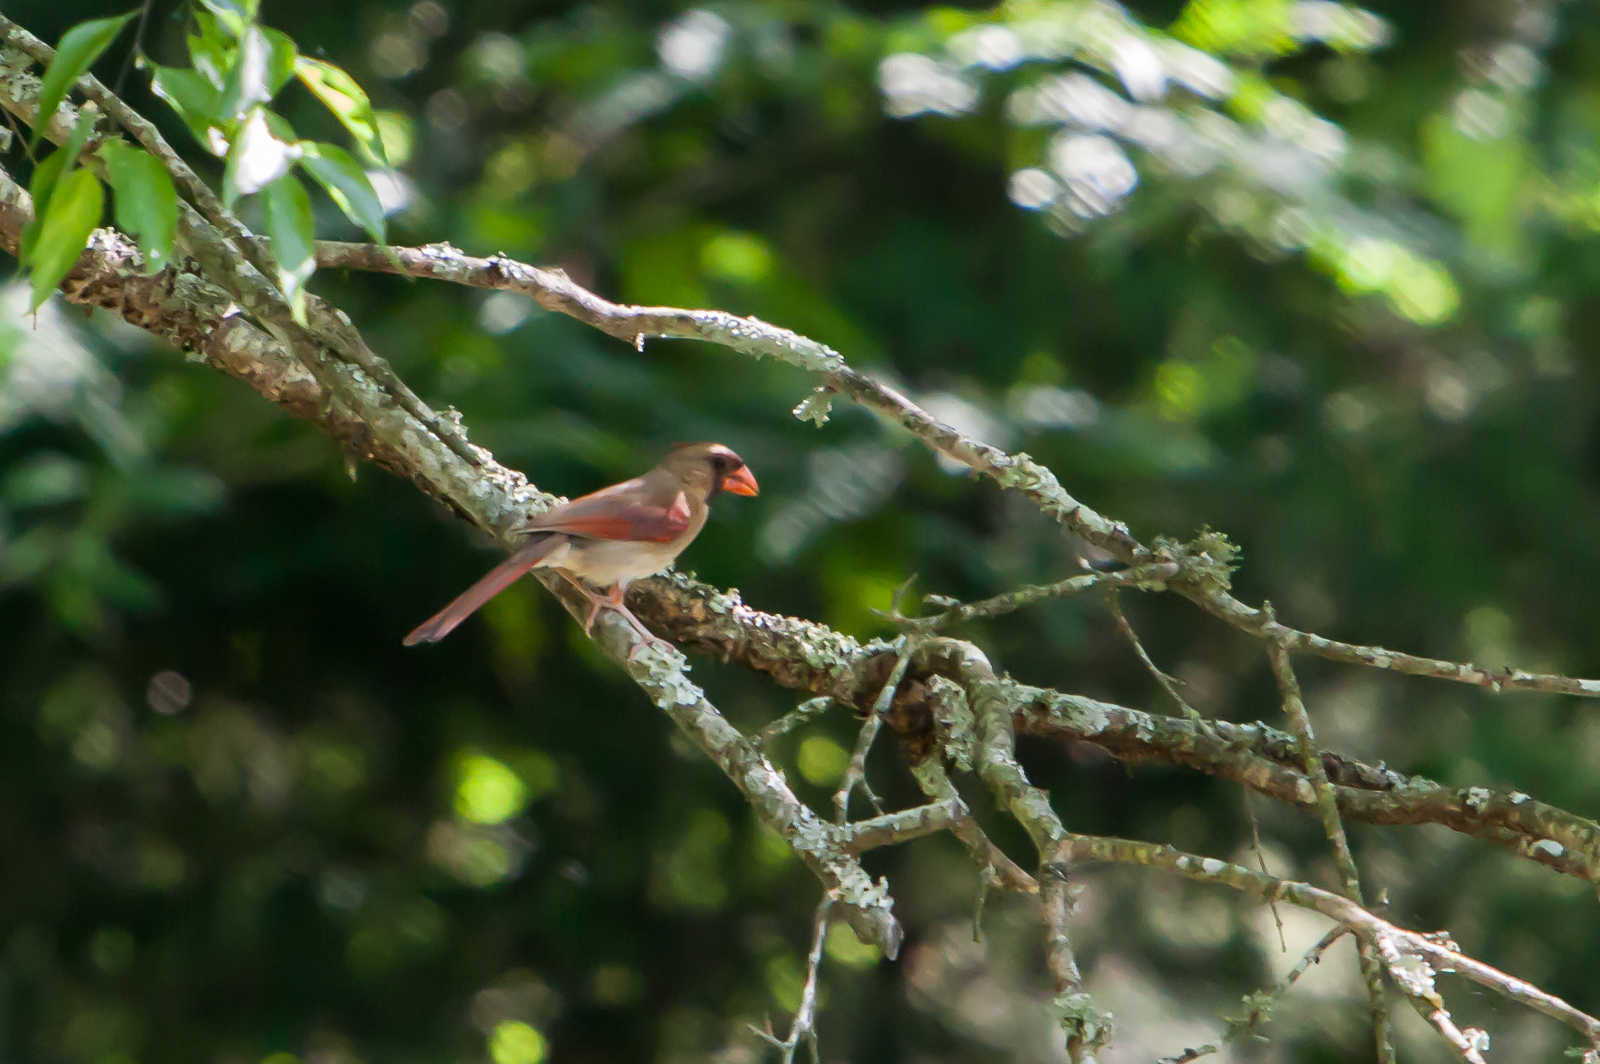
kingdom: Animalia
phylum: Chordata
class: Aves
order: Passeriformes
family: Cardinalidae
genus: Cardinalis
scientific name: Cardinalis cardinalis
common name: Northern cardinal
